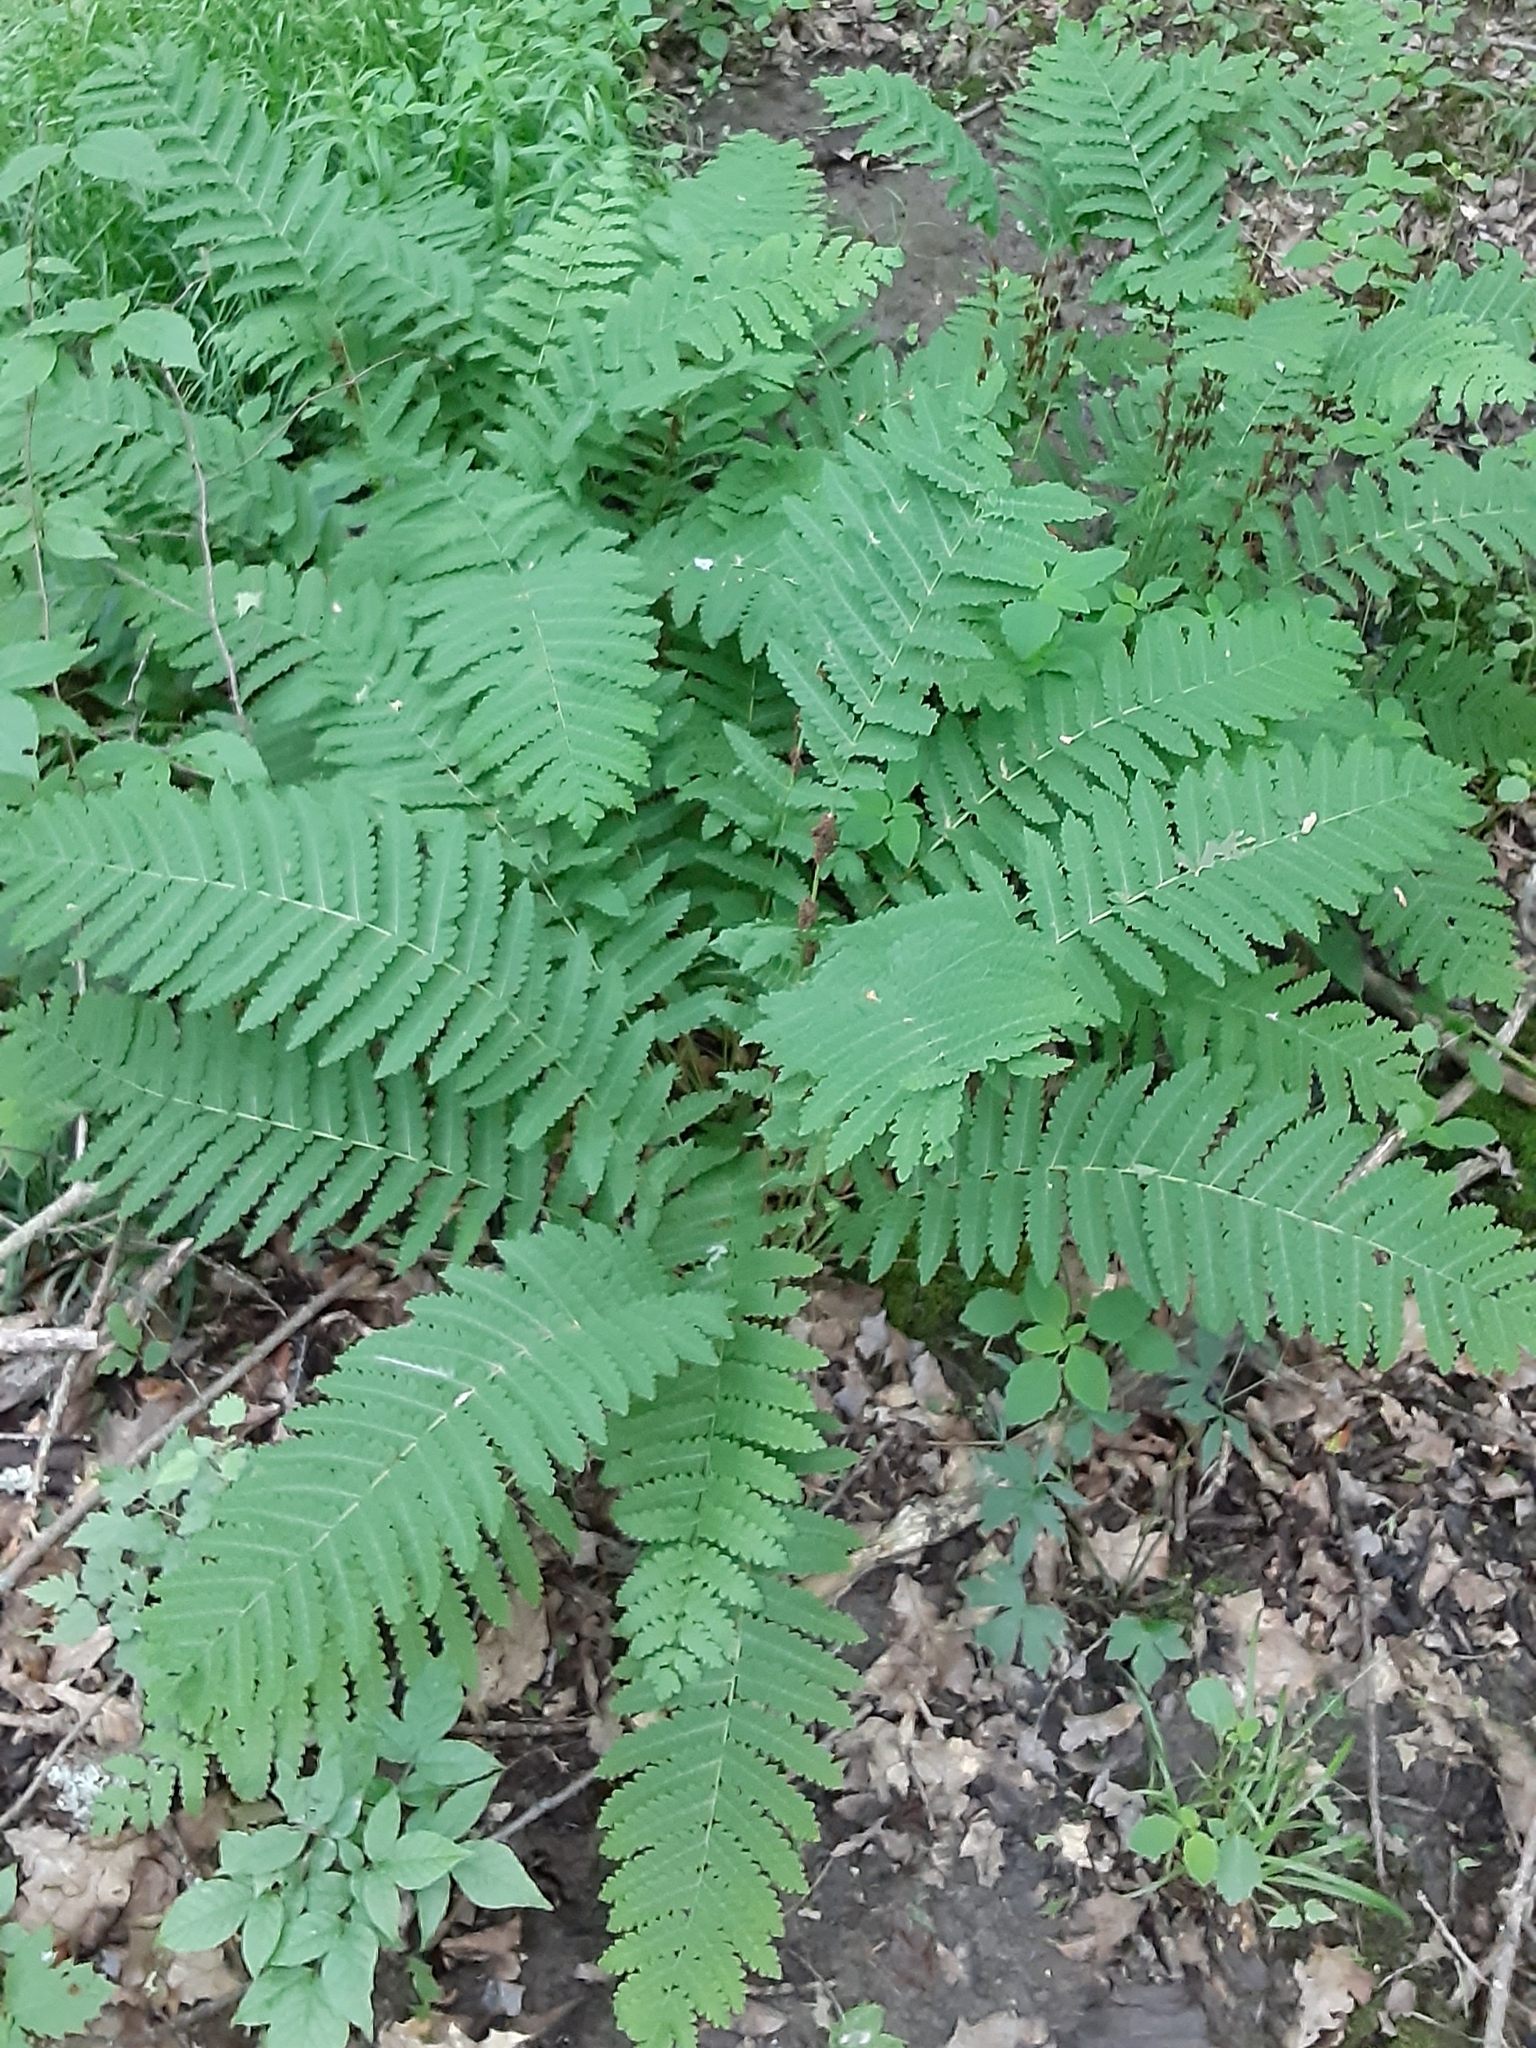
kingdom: Plantae
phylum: Tracheophyta
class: Polypodiopsida
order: Osmundales
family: Osmundaceae
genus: Claytosmunda
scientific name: Claytosmunda claytoniana
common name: Clayton's fern
